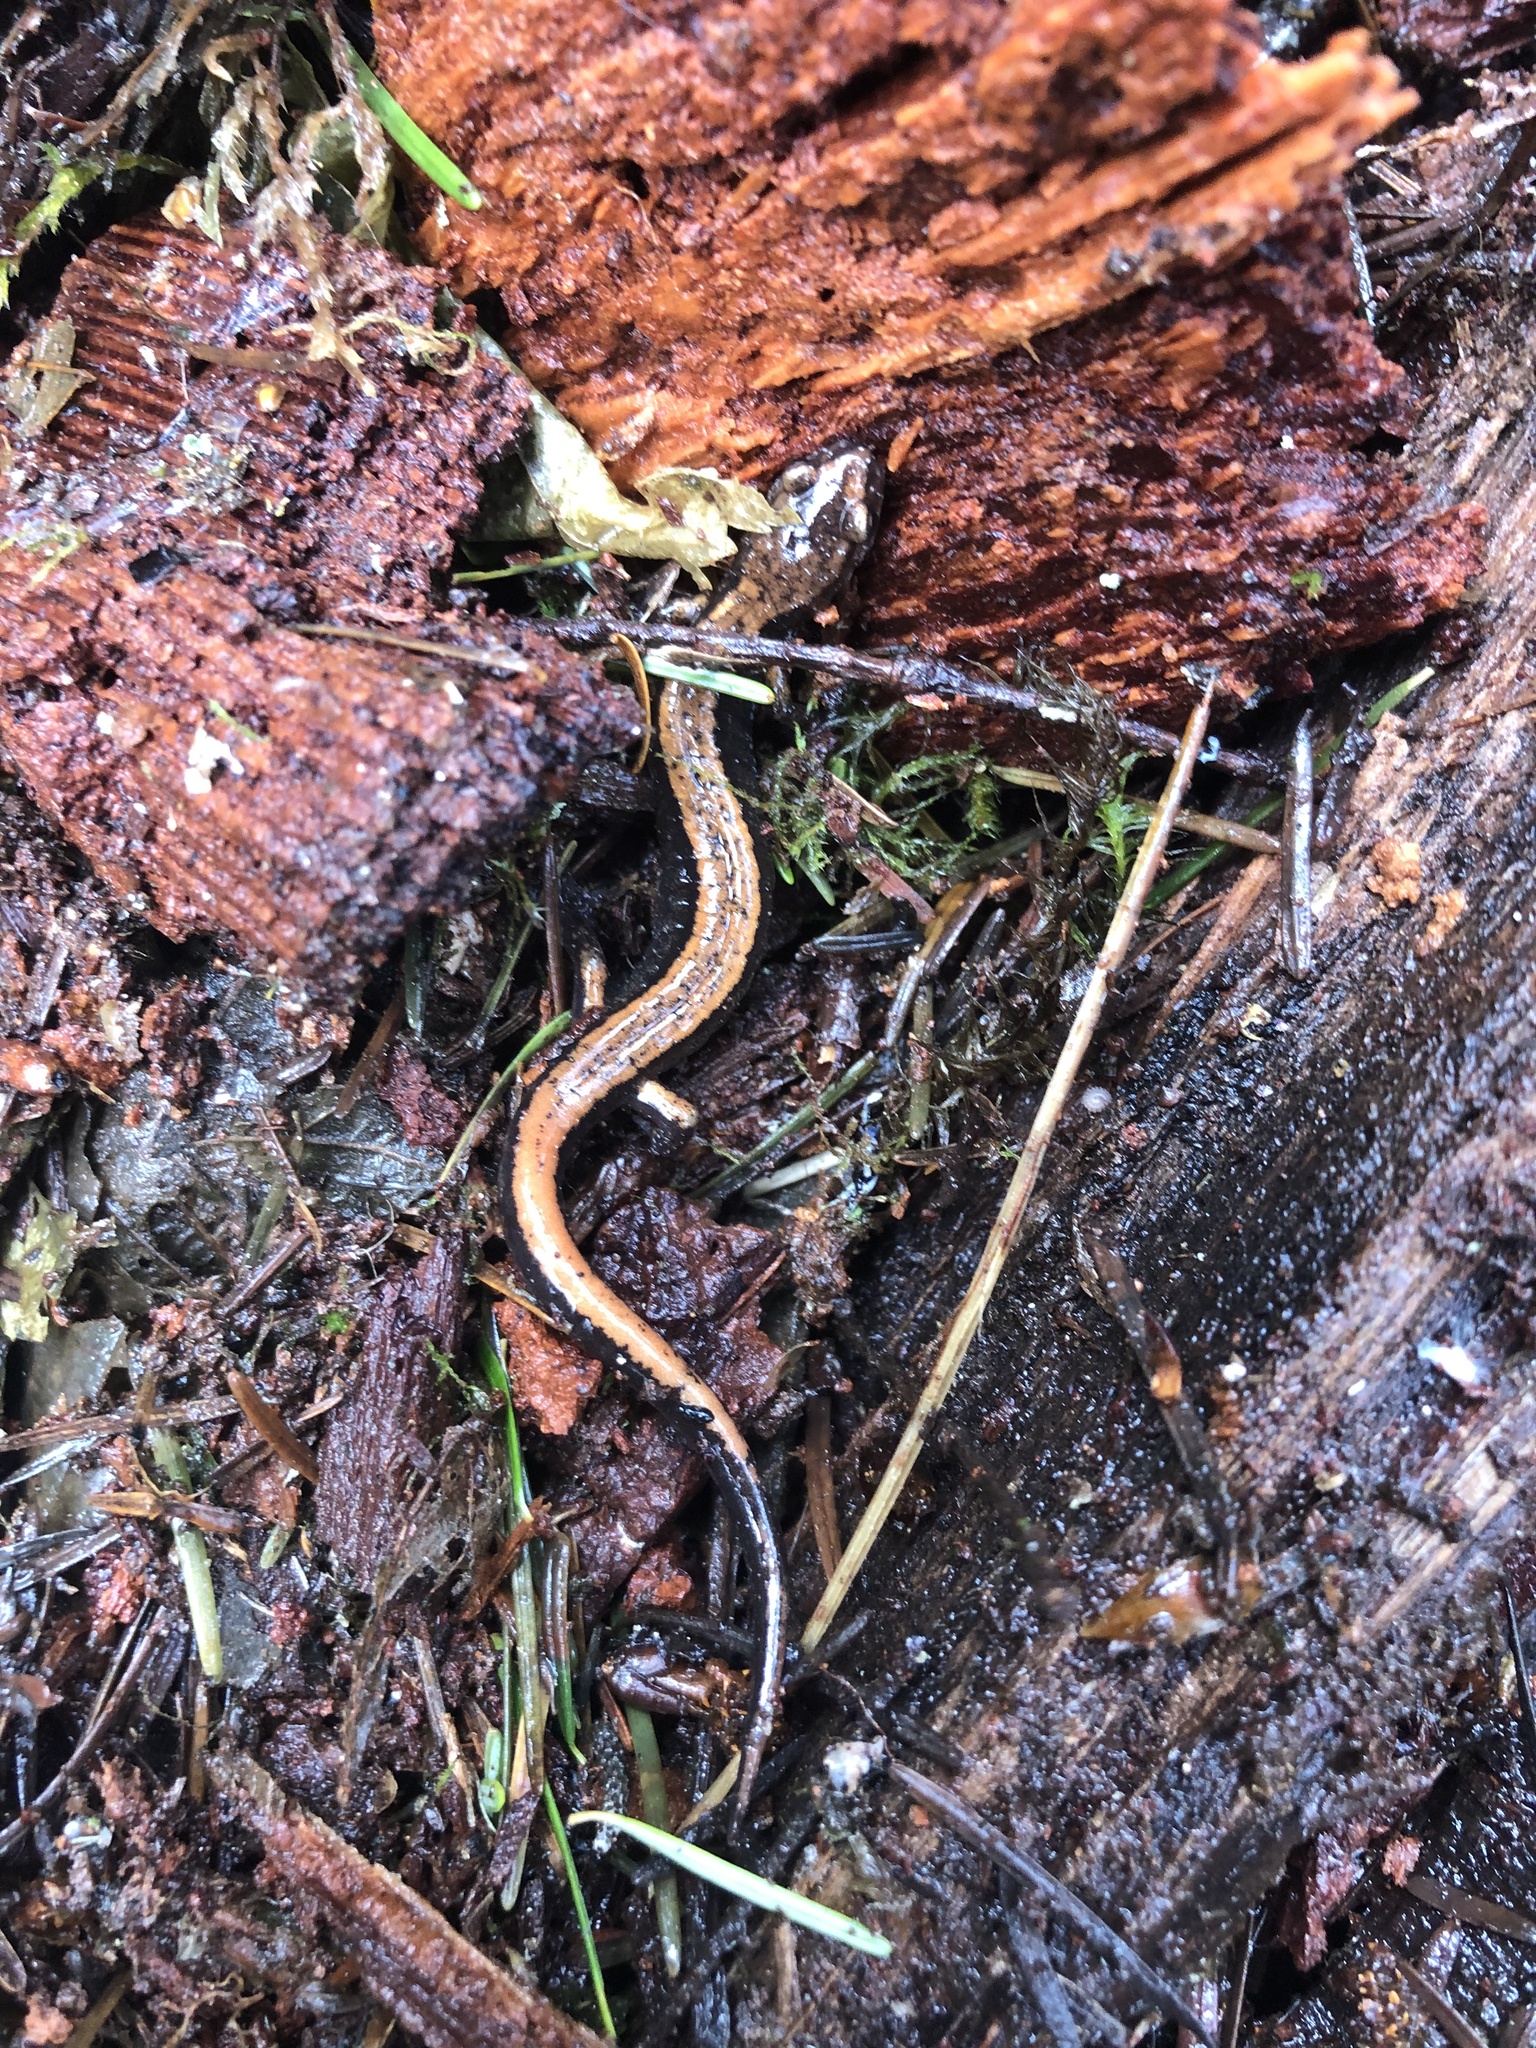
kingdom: Animalia
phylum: Chordata
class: Amphibia
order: Caudata
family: Plethodontidae
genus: Plethodon
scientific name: Plethodon vehiculum
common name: Western red-backed salamander
